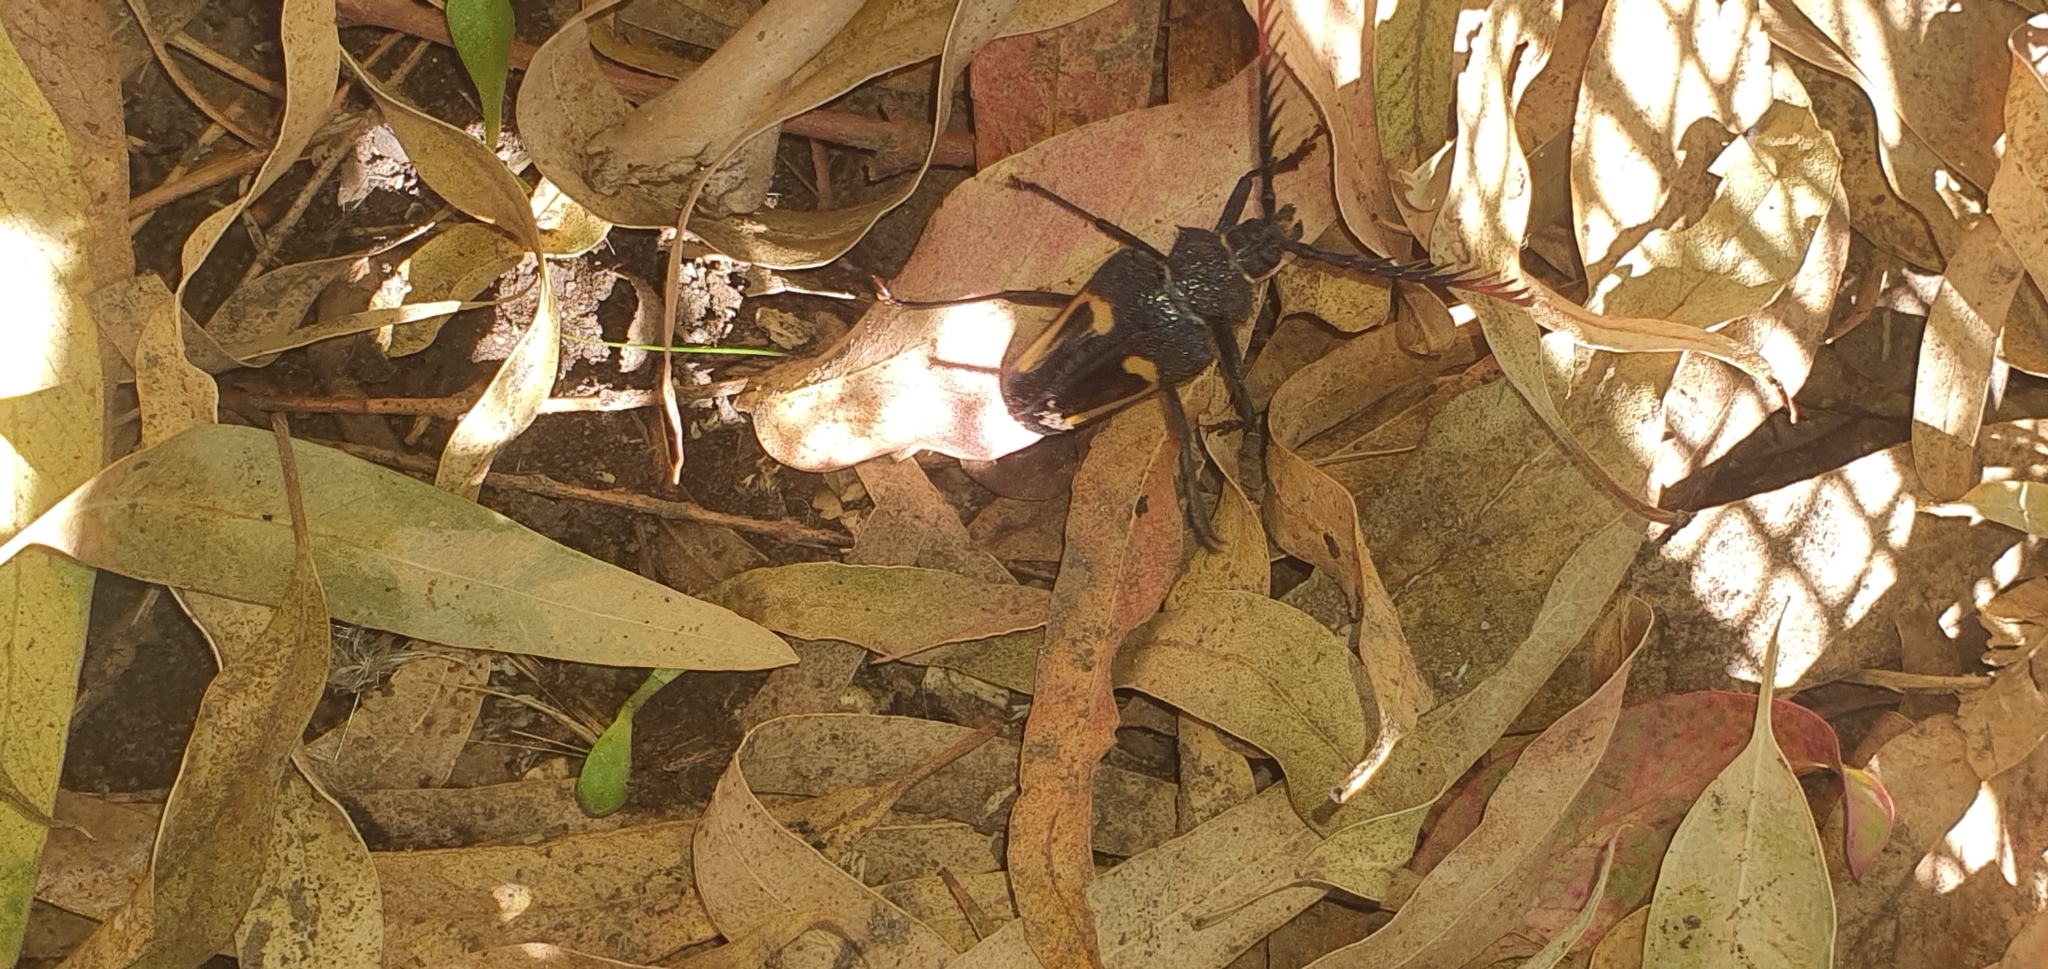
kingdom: Animalia
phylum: Arthropoda
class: Insecta
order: Coleoptera
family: Cerambycidae
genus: Calocomus
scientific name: Calocomus desmarestii
